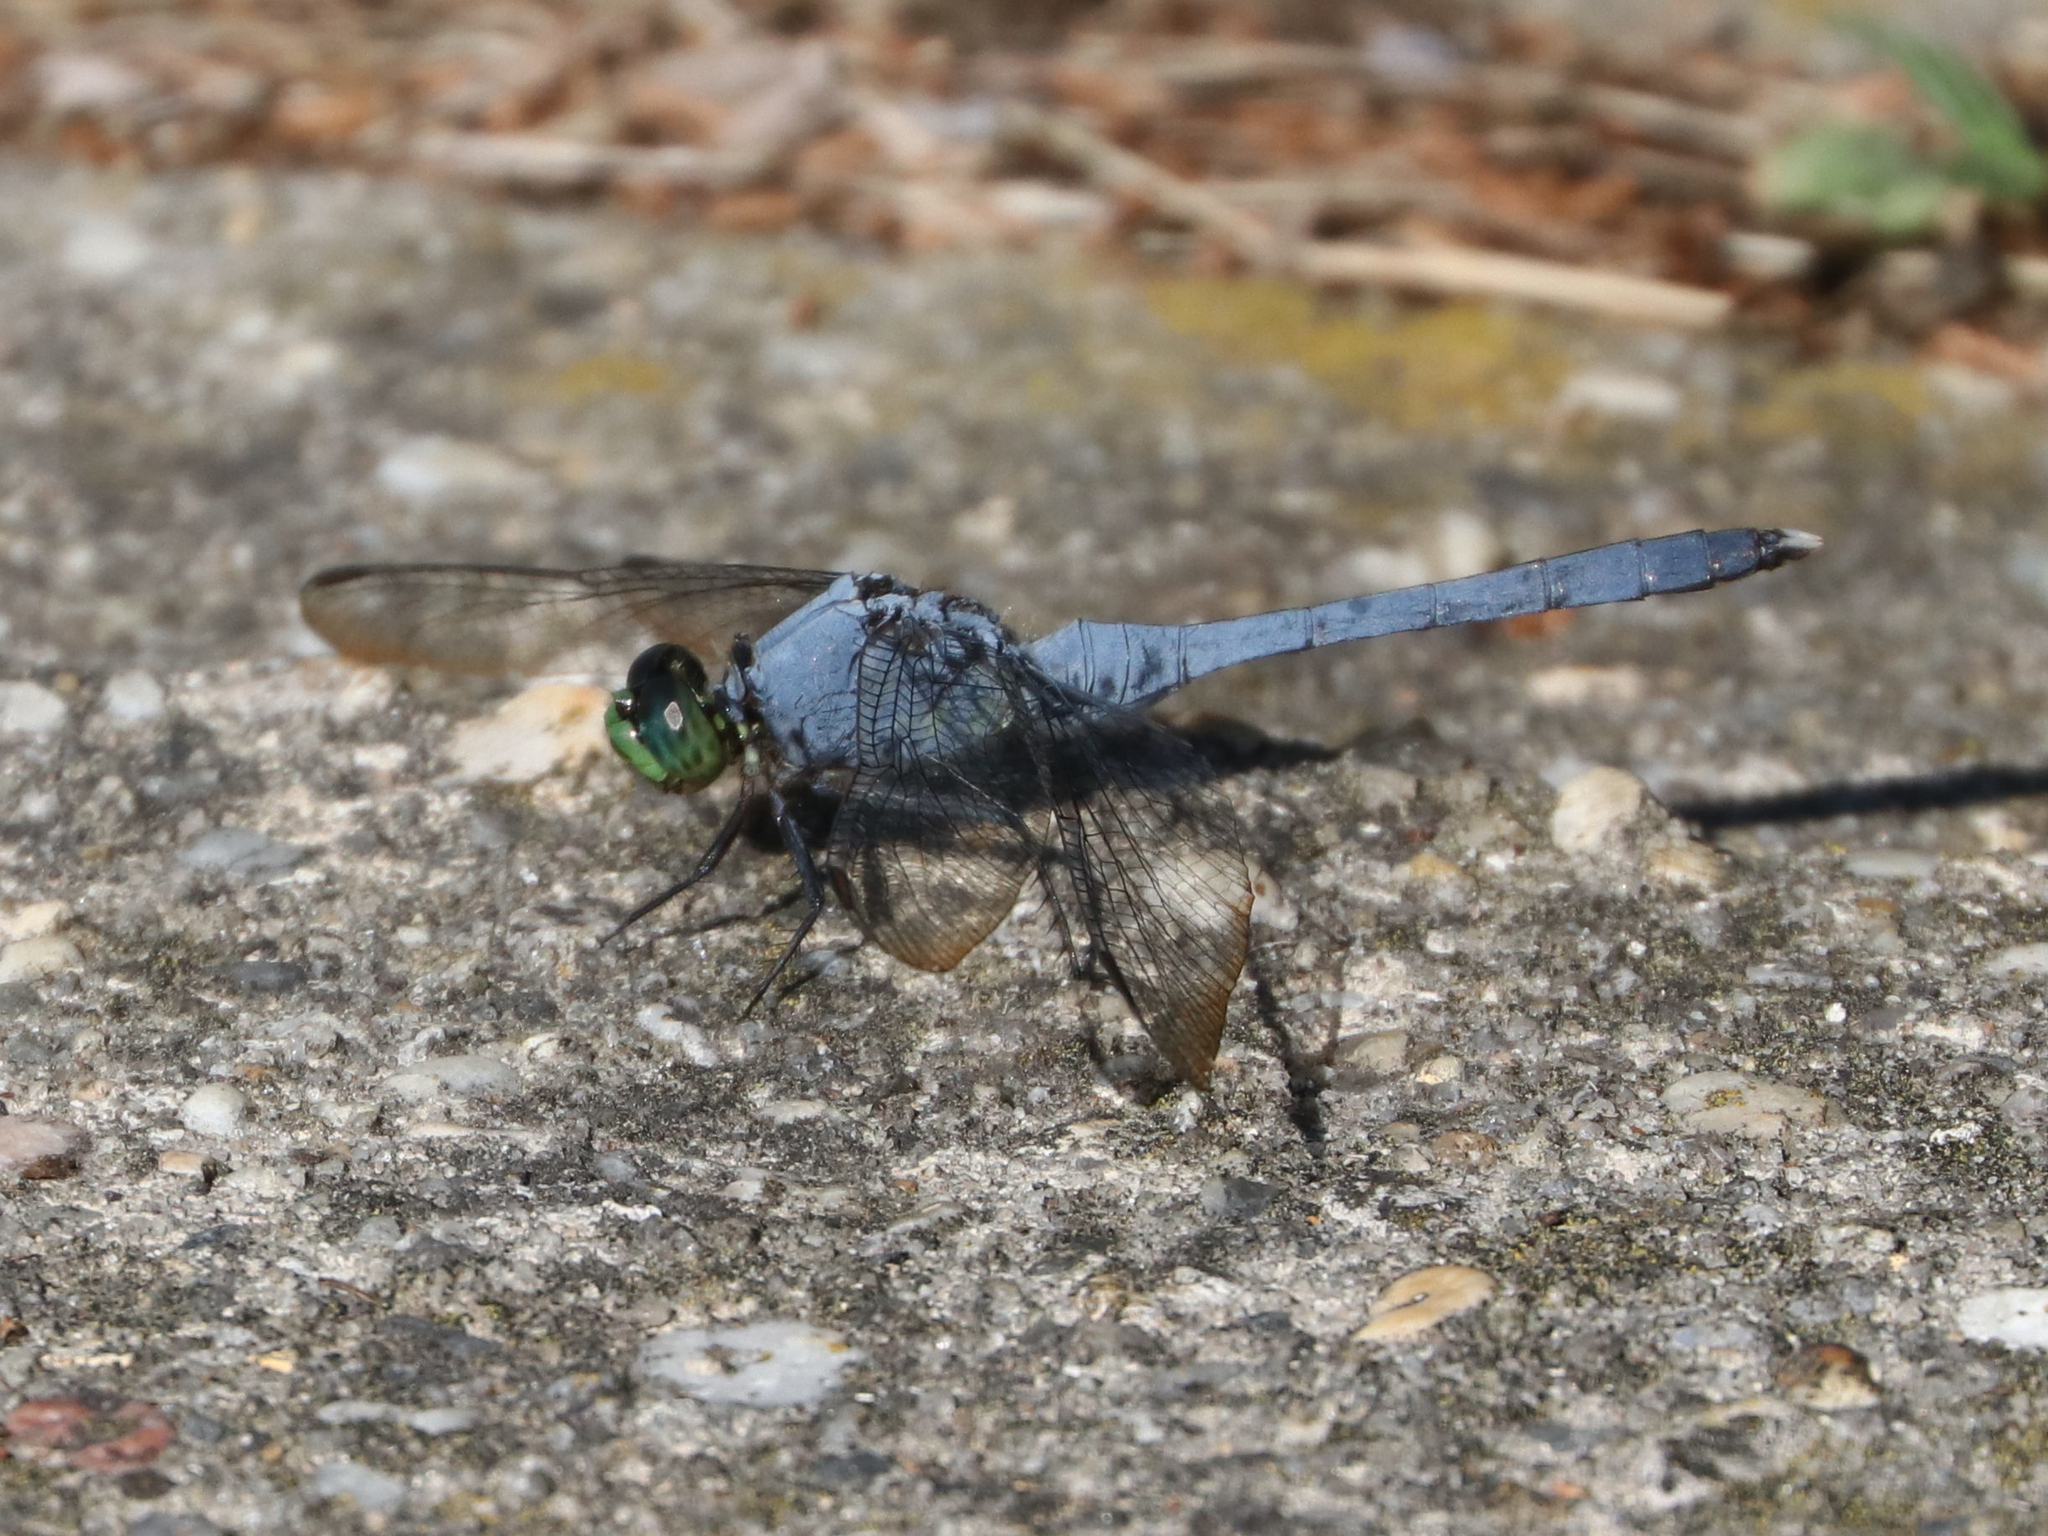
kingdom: Animalia
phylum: Arthropoda
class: Insecta
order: Odonata
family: Libellulidae
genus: Erythemis
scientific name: Erythemis simplicicollis
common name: Eastern pondhawk
